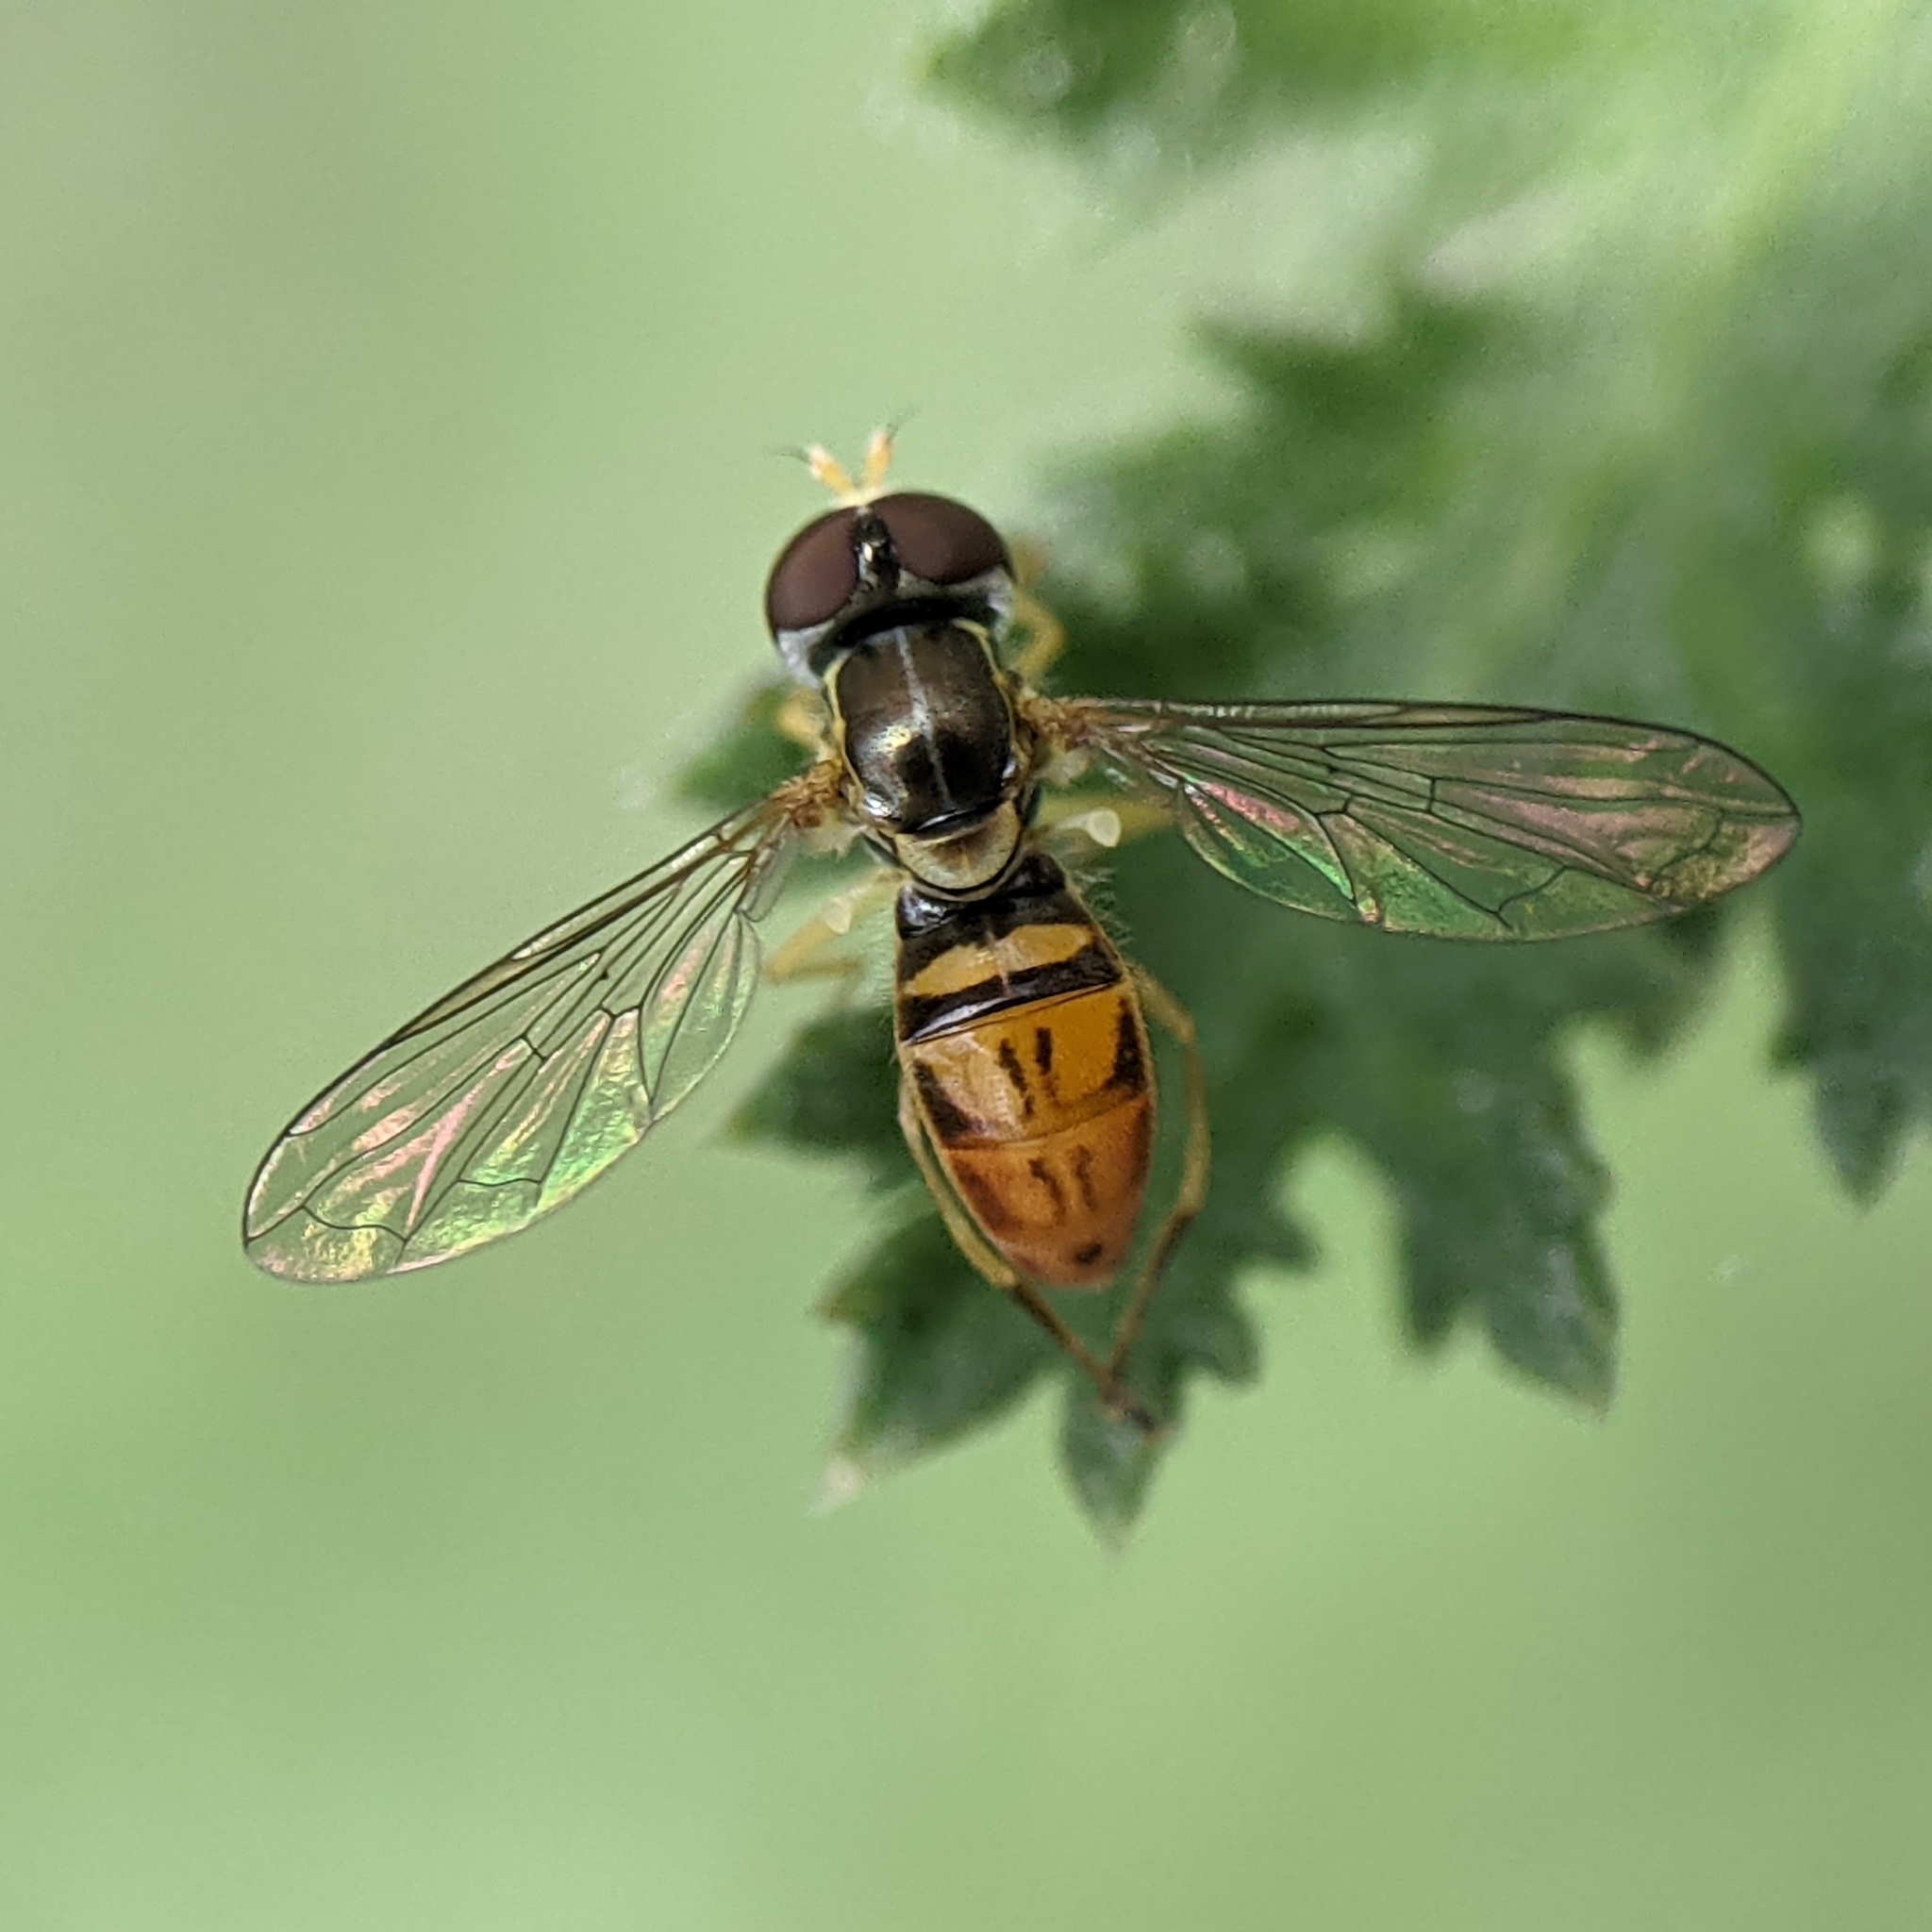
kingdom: Animalia
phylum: Arthropoda
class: Insecta
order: Diptera
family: Syrphidae
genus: Toxomerus
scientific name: Toxomerus marginatus
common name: Syrphid fly
